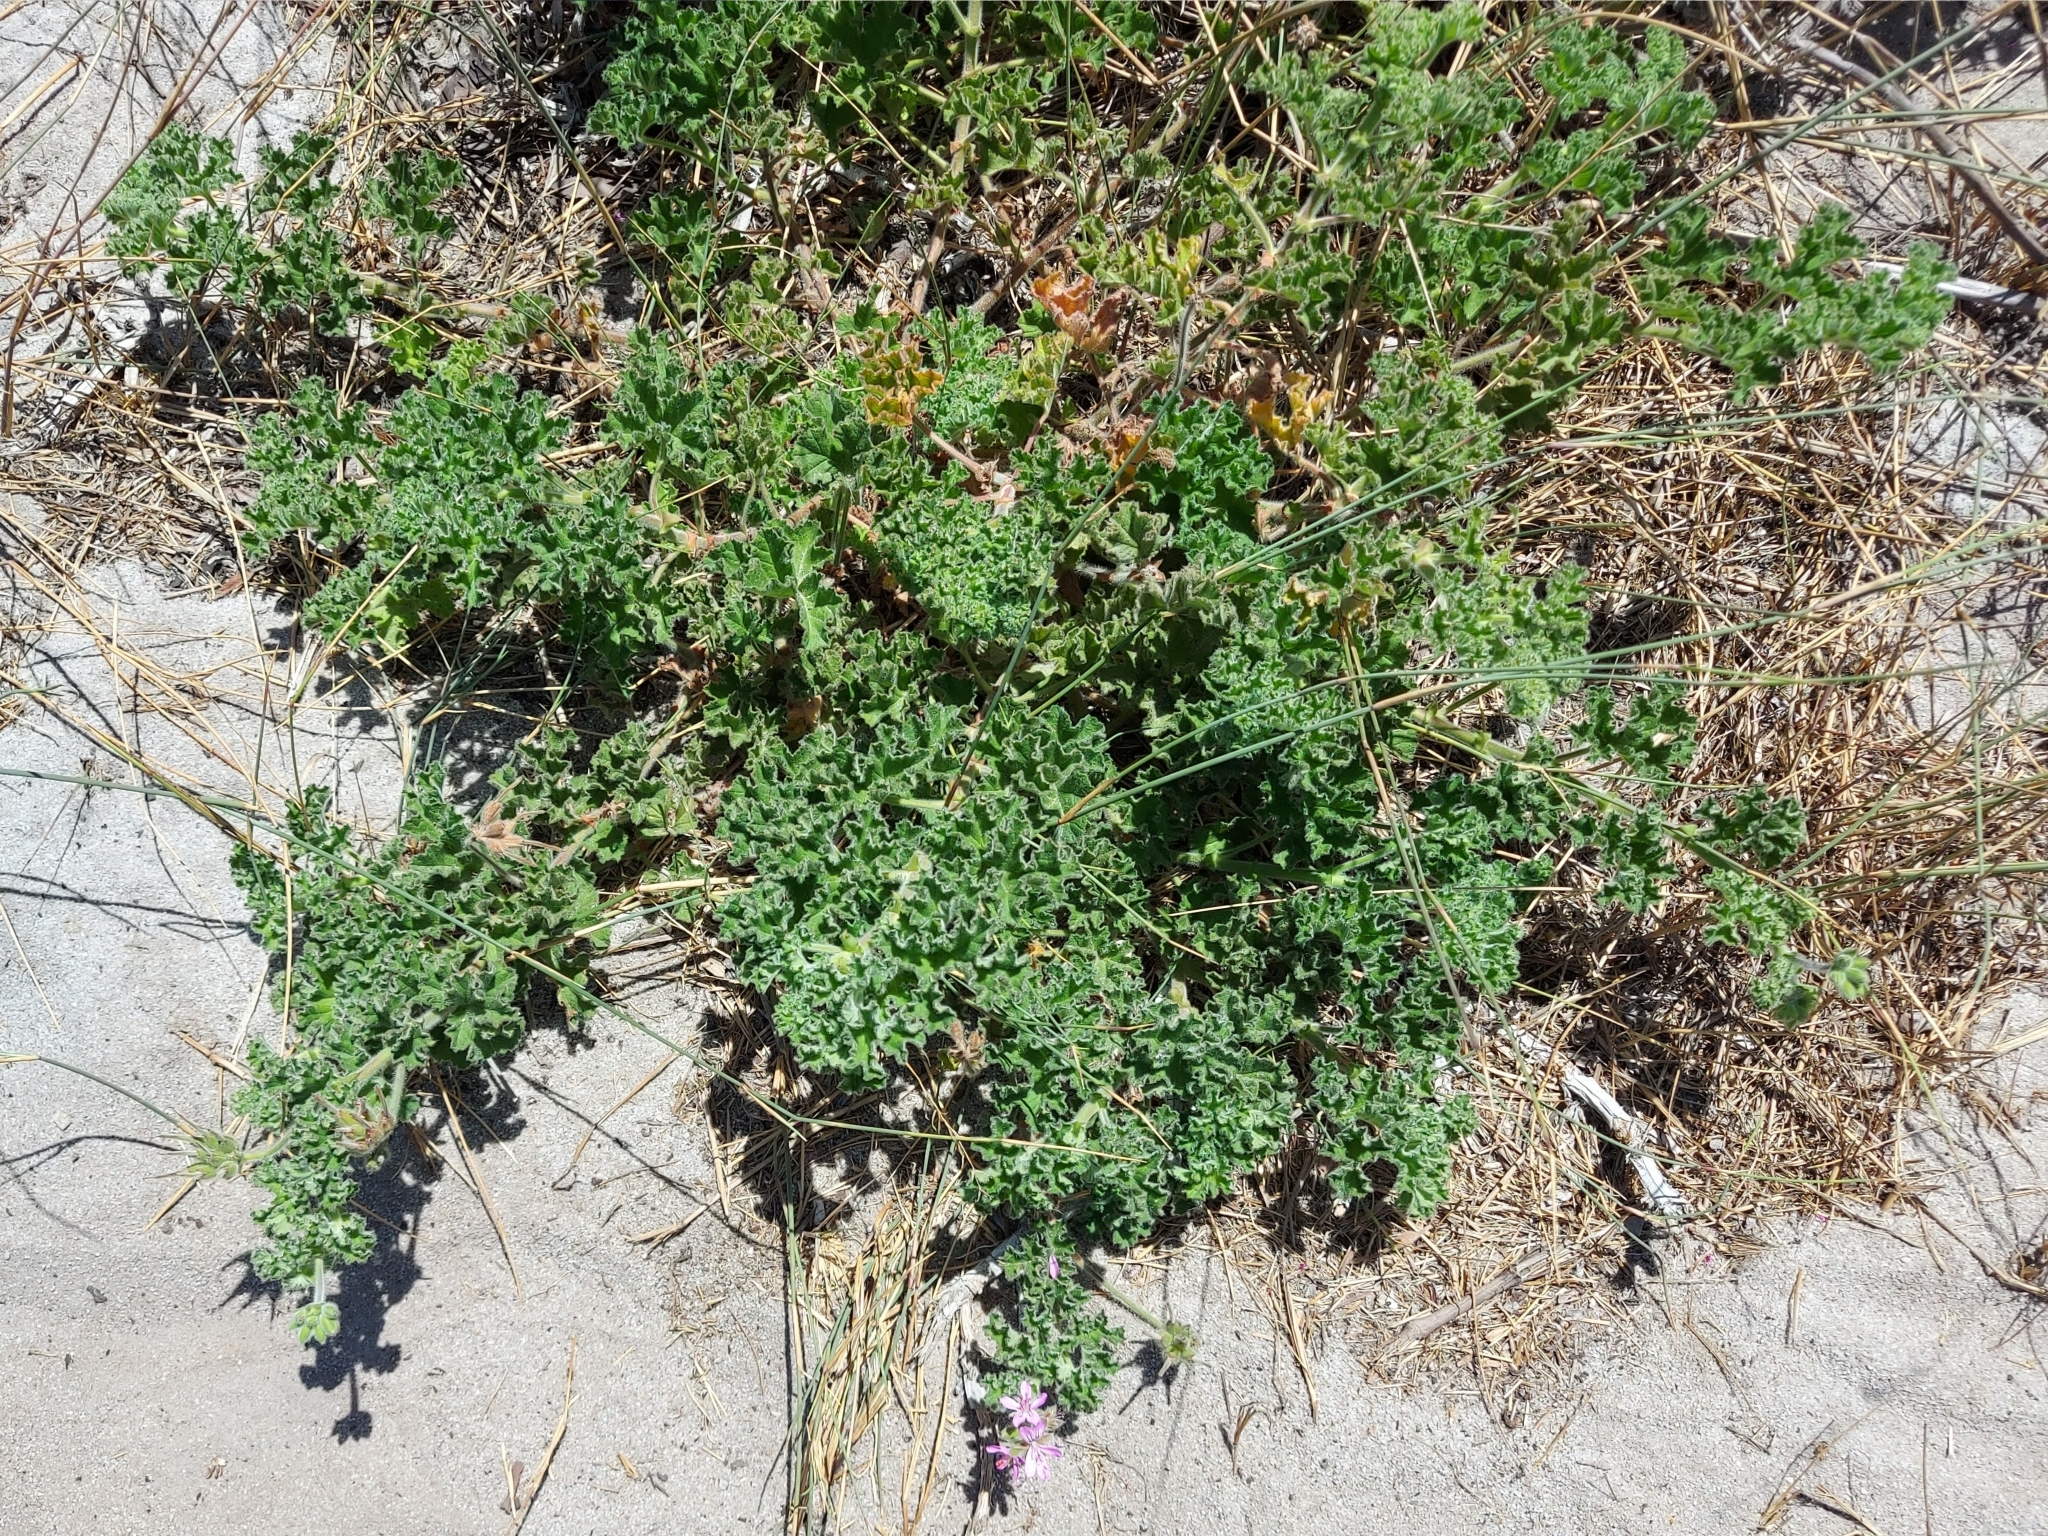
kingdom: Plantae
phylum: Tracheophyta
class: Magnoliopsida
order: Geraniales
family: Geraniaceae
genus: Pelargonium
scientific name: Pelargonium capitatum
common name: Rose scented geranium
